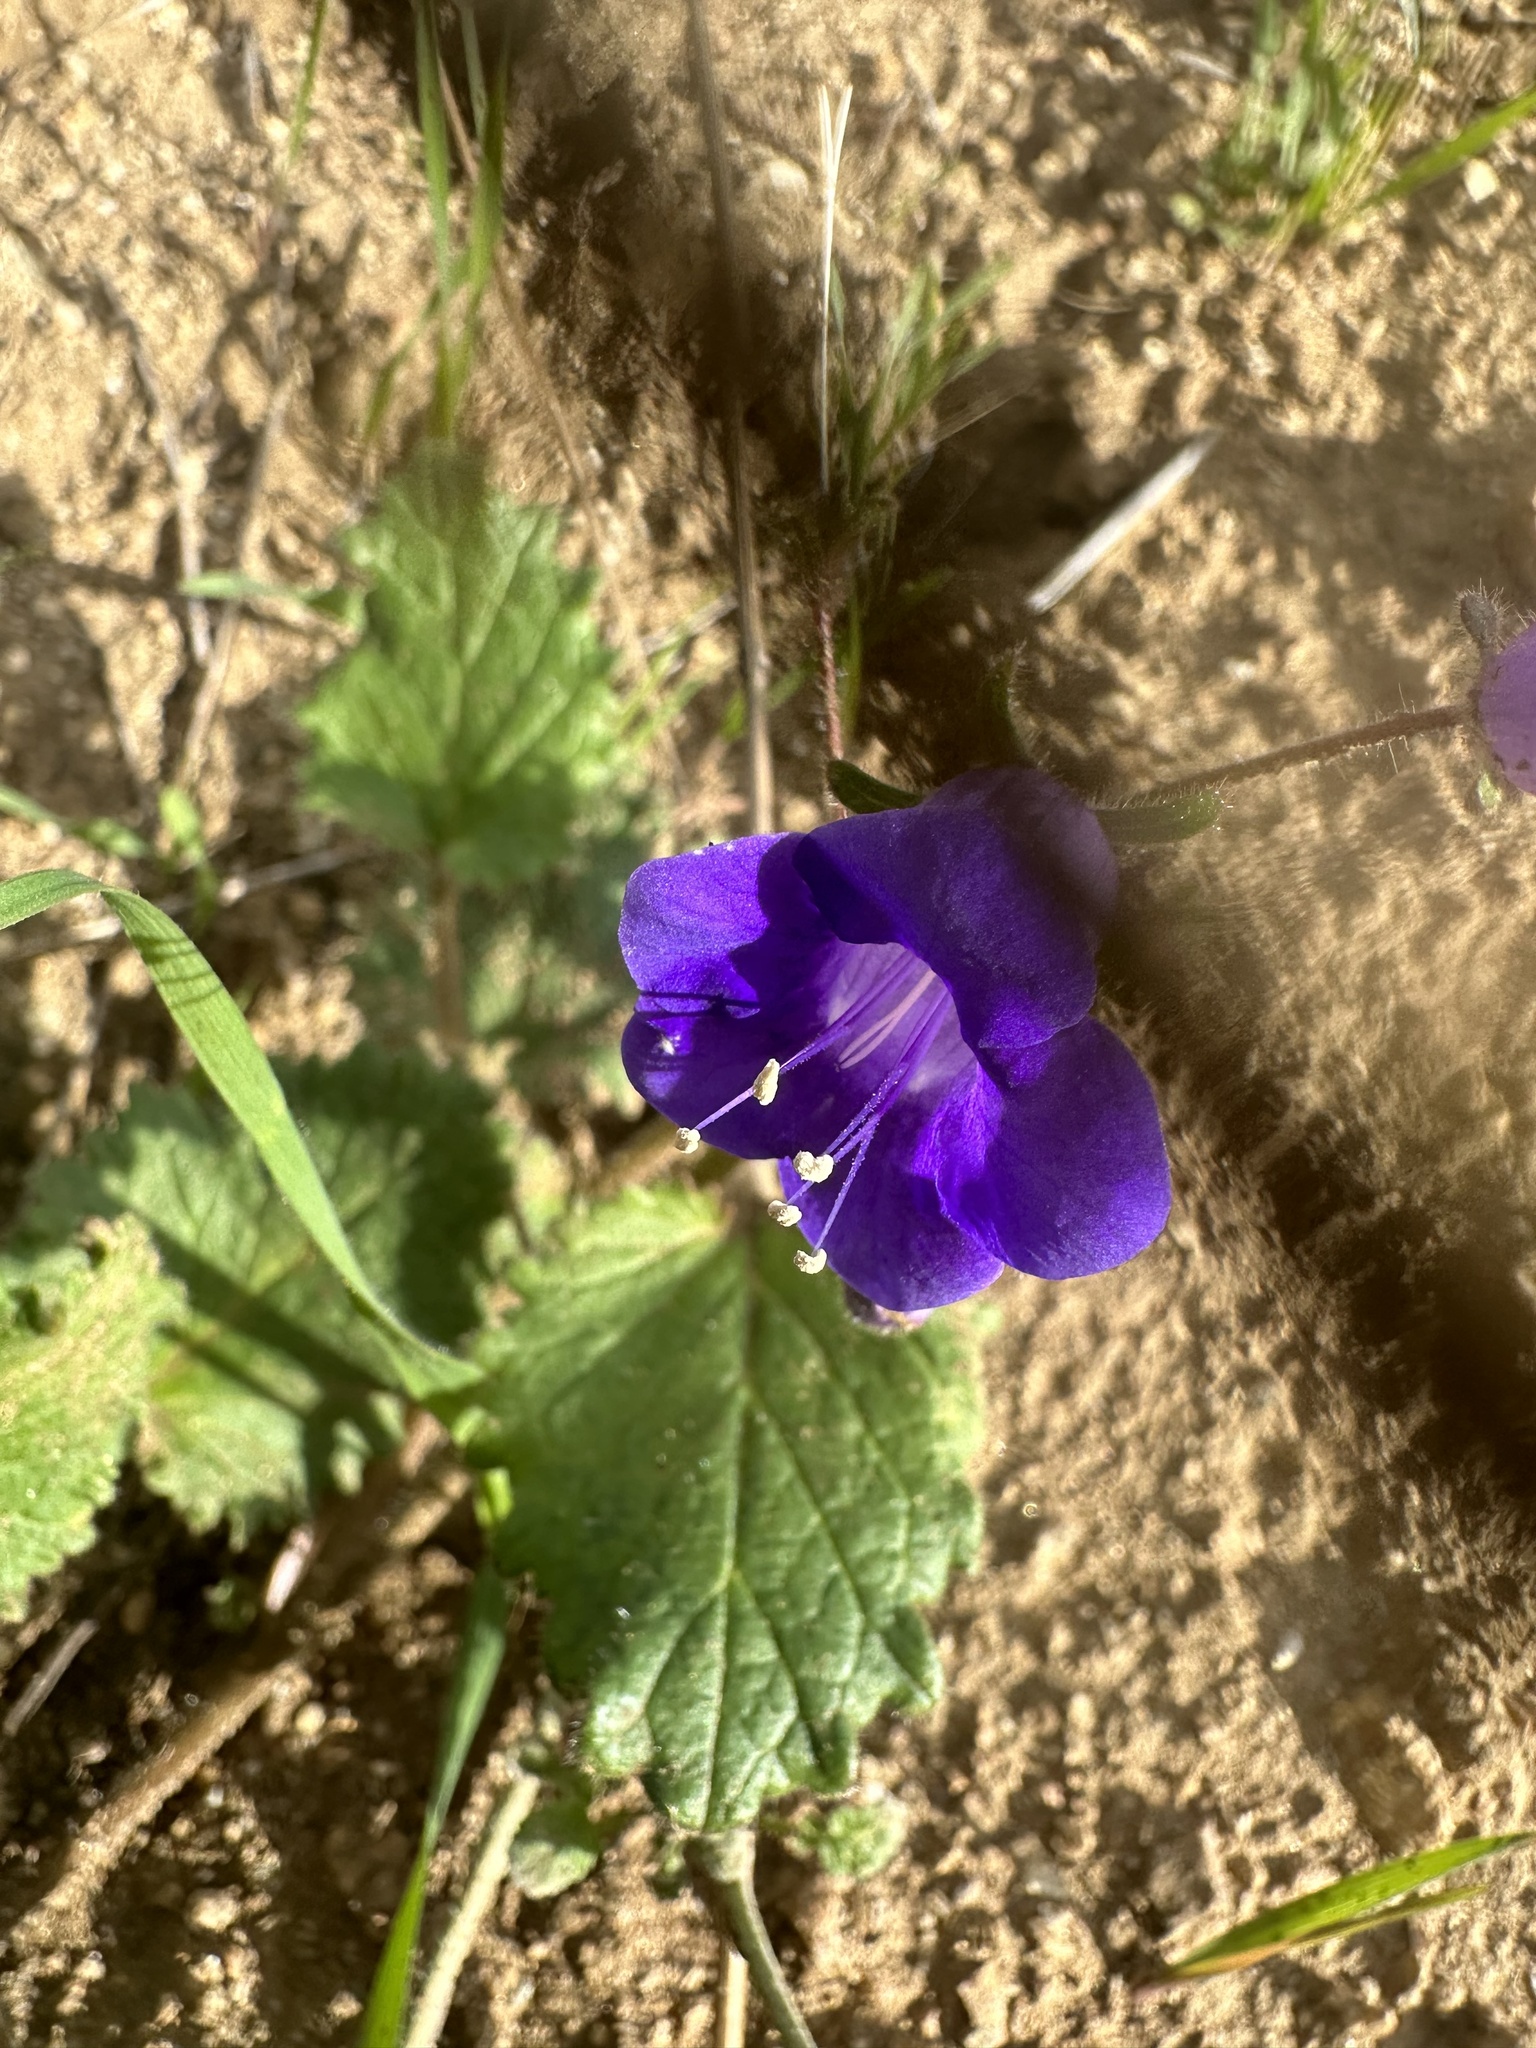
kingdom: Plantae
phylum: Tracheophyta
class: Magnoliopsida
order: Boraginales
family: Hydrophyllaceae
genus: Phacelia
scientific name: Phacelia minor
